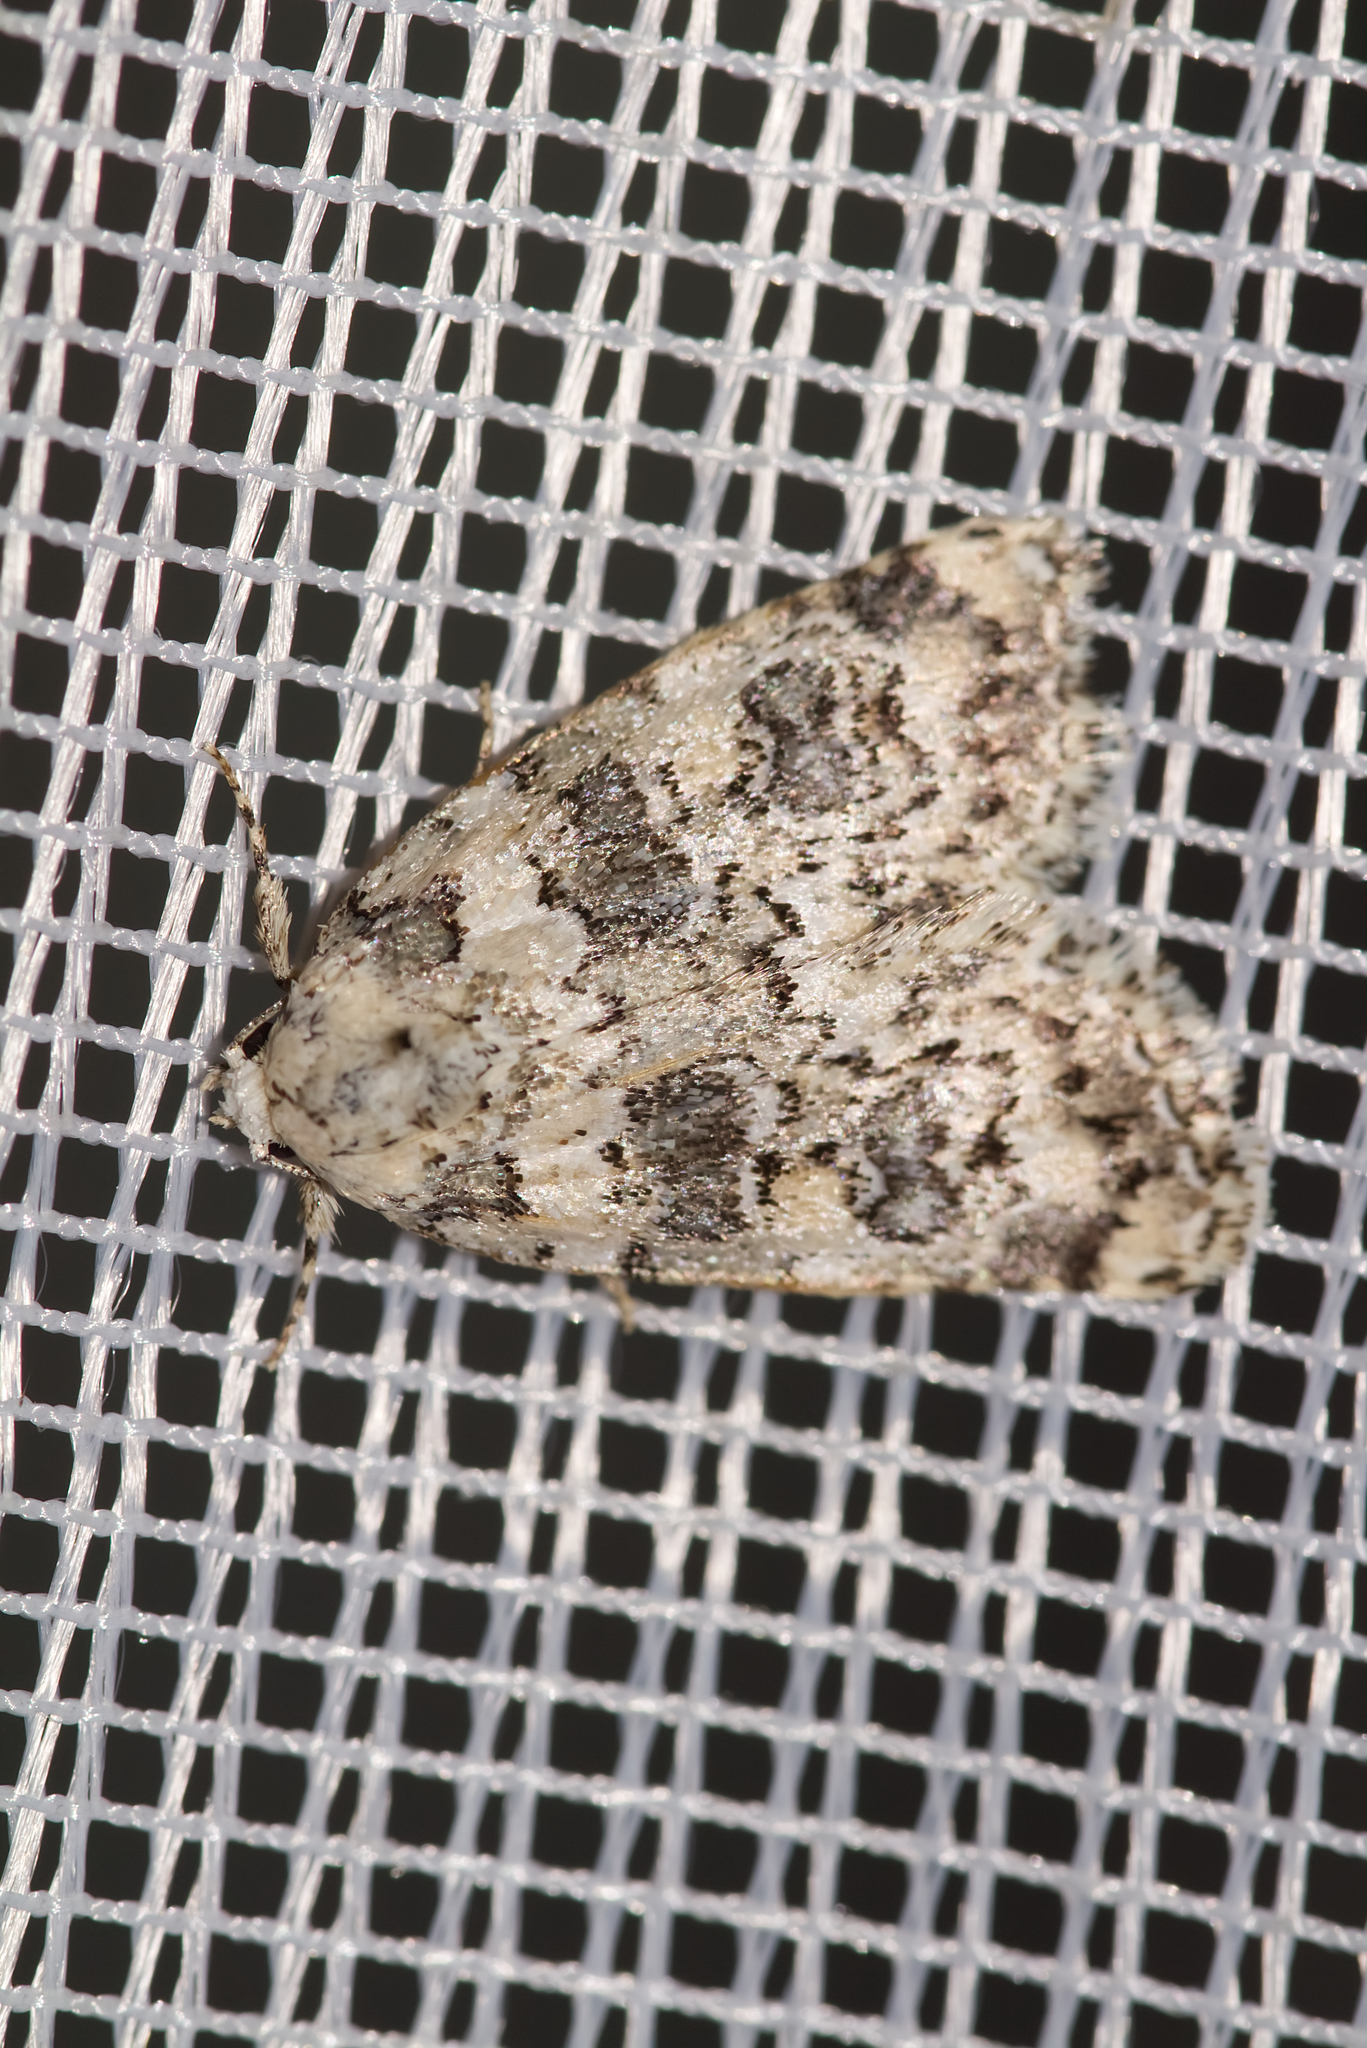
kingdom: Animalia
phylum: Arthropoda
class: Insecta
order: Lepidoptera
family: Noctuidae
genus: Bryophila
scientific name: Bryophila domestica
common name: Marbled beauty
